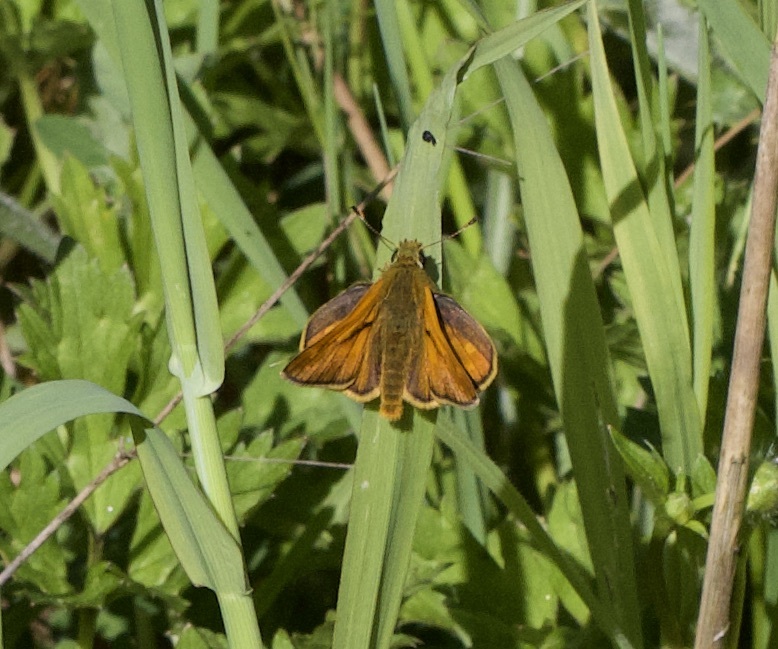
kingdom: Animalia
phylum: Arthropoda
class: Insecta
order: Lepidoptera
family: Hesperiidae
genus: Ochlodes
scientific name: Ochlodes venata
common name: Large skipper
